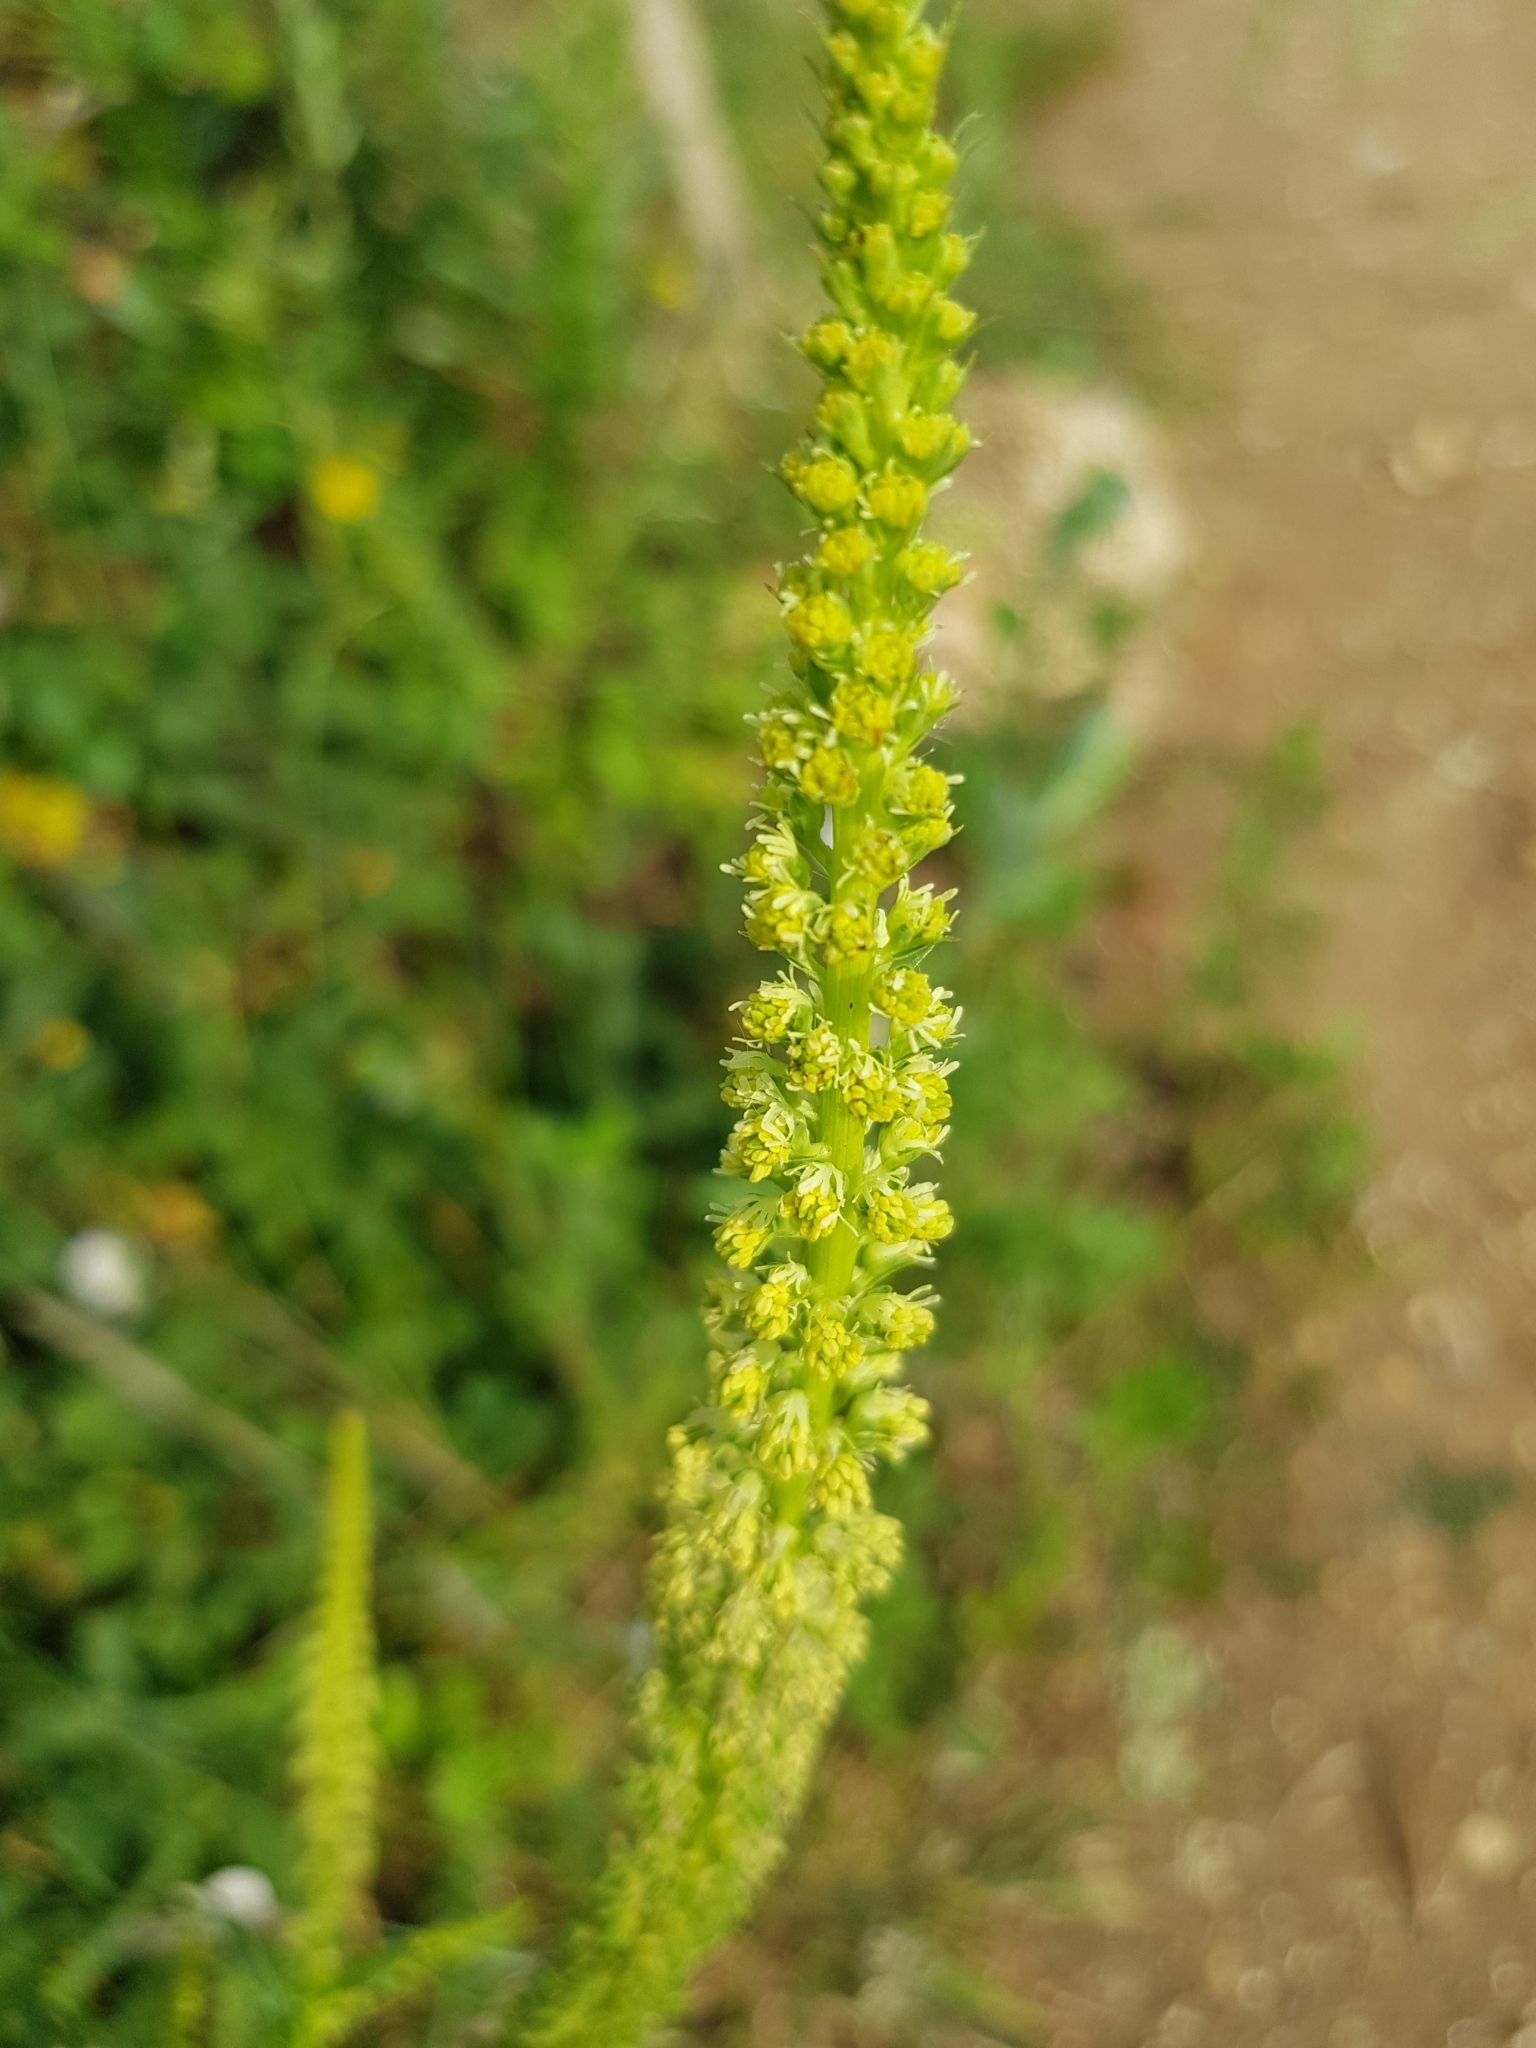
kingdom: Plantae
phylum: Tracheophyta
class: Magnoliopsida
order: Brassicales
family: Resedaceae
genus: Reseda
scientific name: Reseda luteola
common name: Weld
